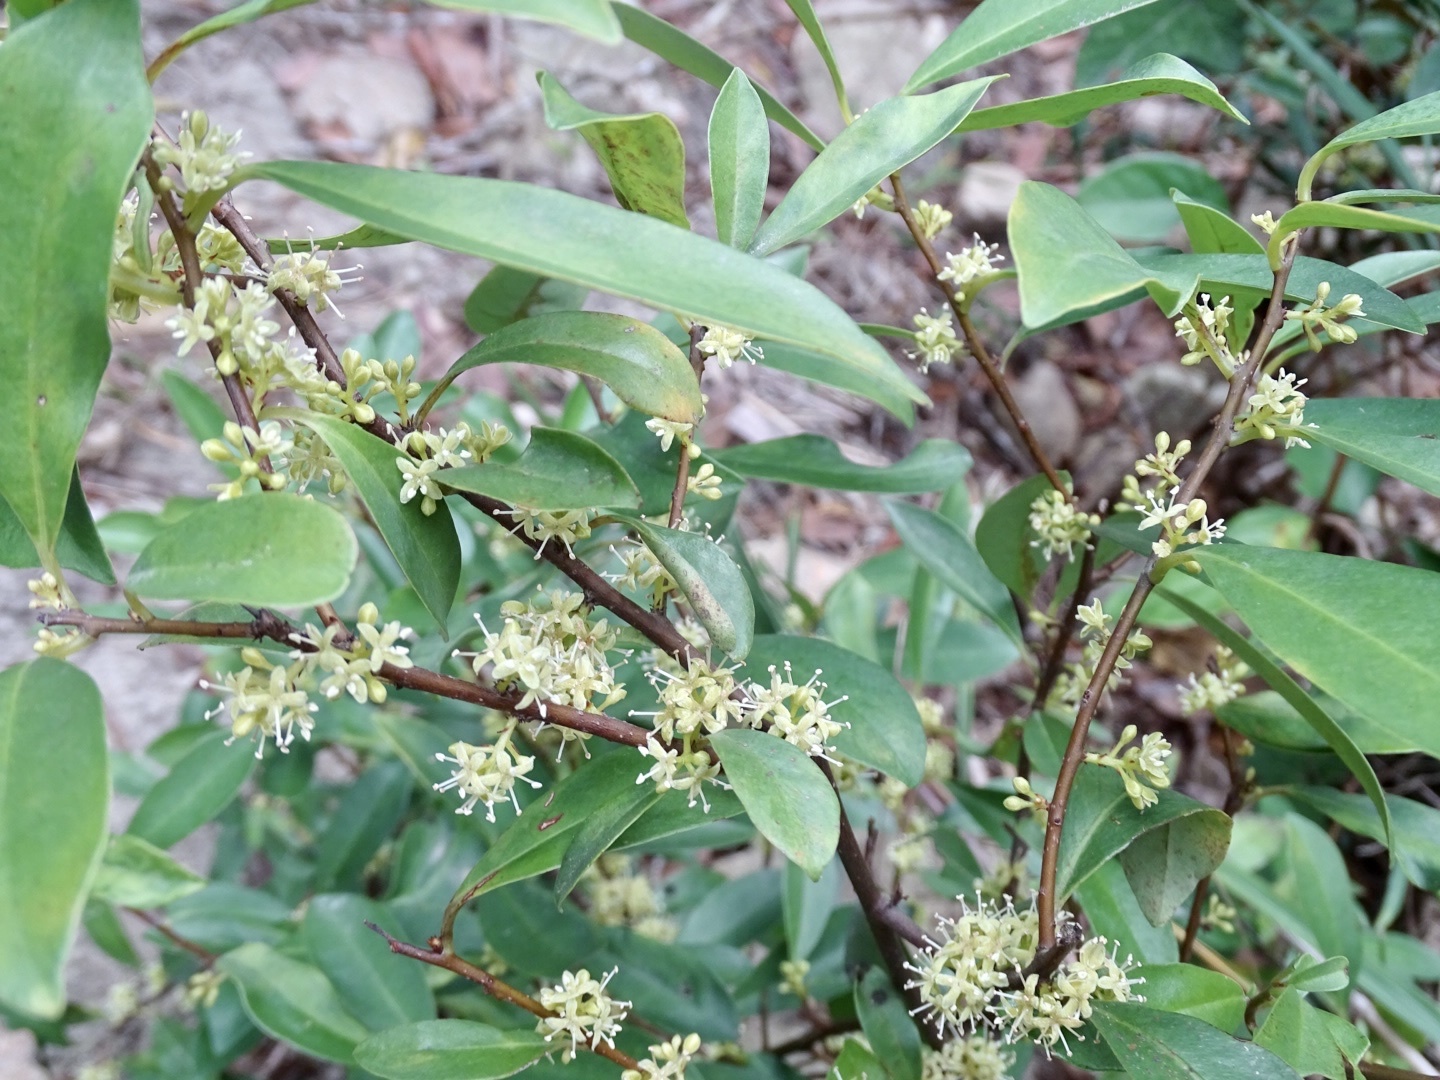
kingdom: Plantae
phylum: Tracheophyta
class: Magnoliopsida
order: Ericales
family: Primulaceae
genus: Embelia
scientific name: Embelia laeta
